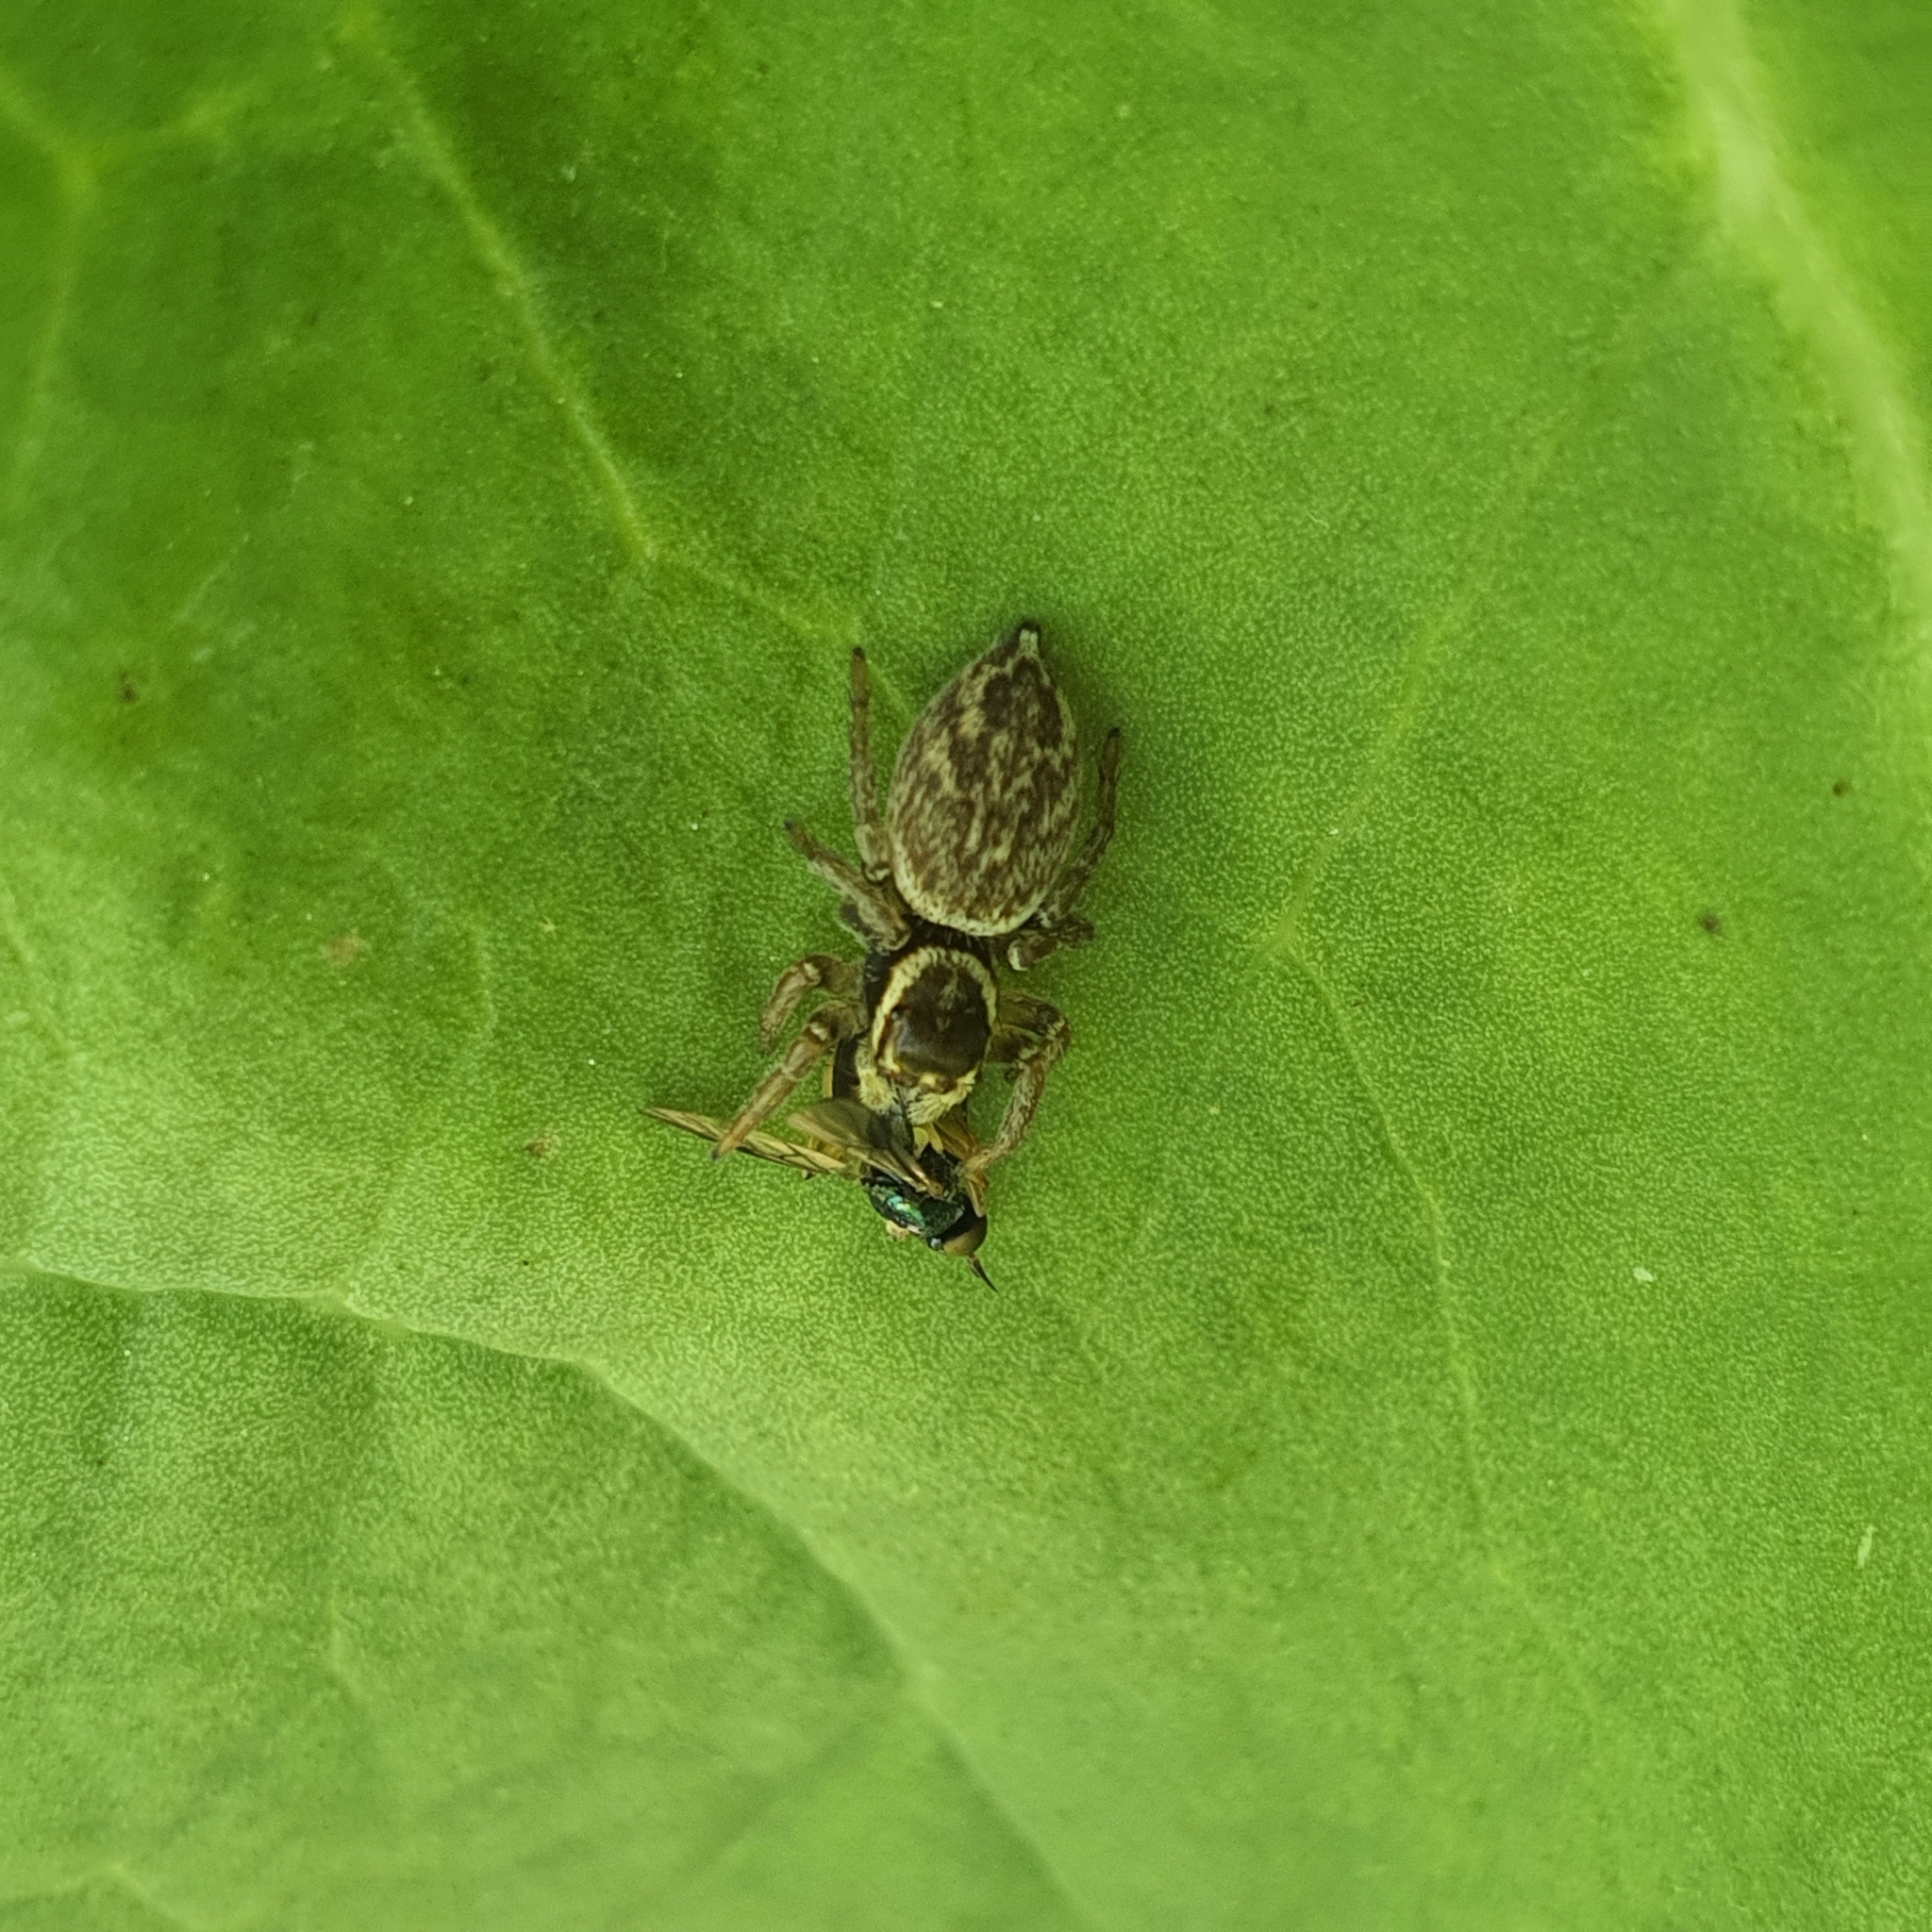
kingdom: Animalia
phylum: Arthropoda
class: Arachnida
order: Araneae
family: Salticidae
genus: Maratus
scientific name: Maratus griseus
